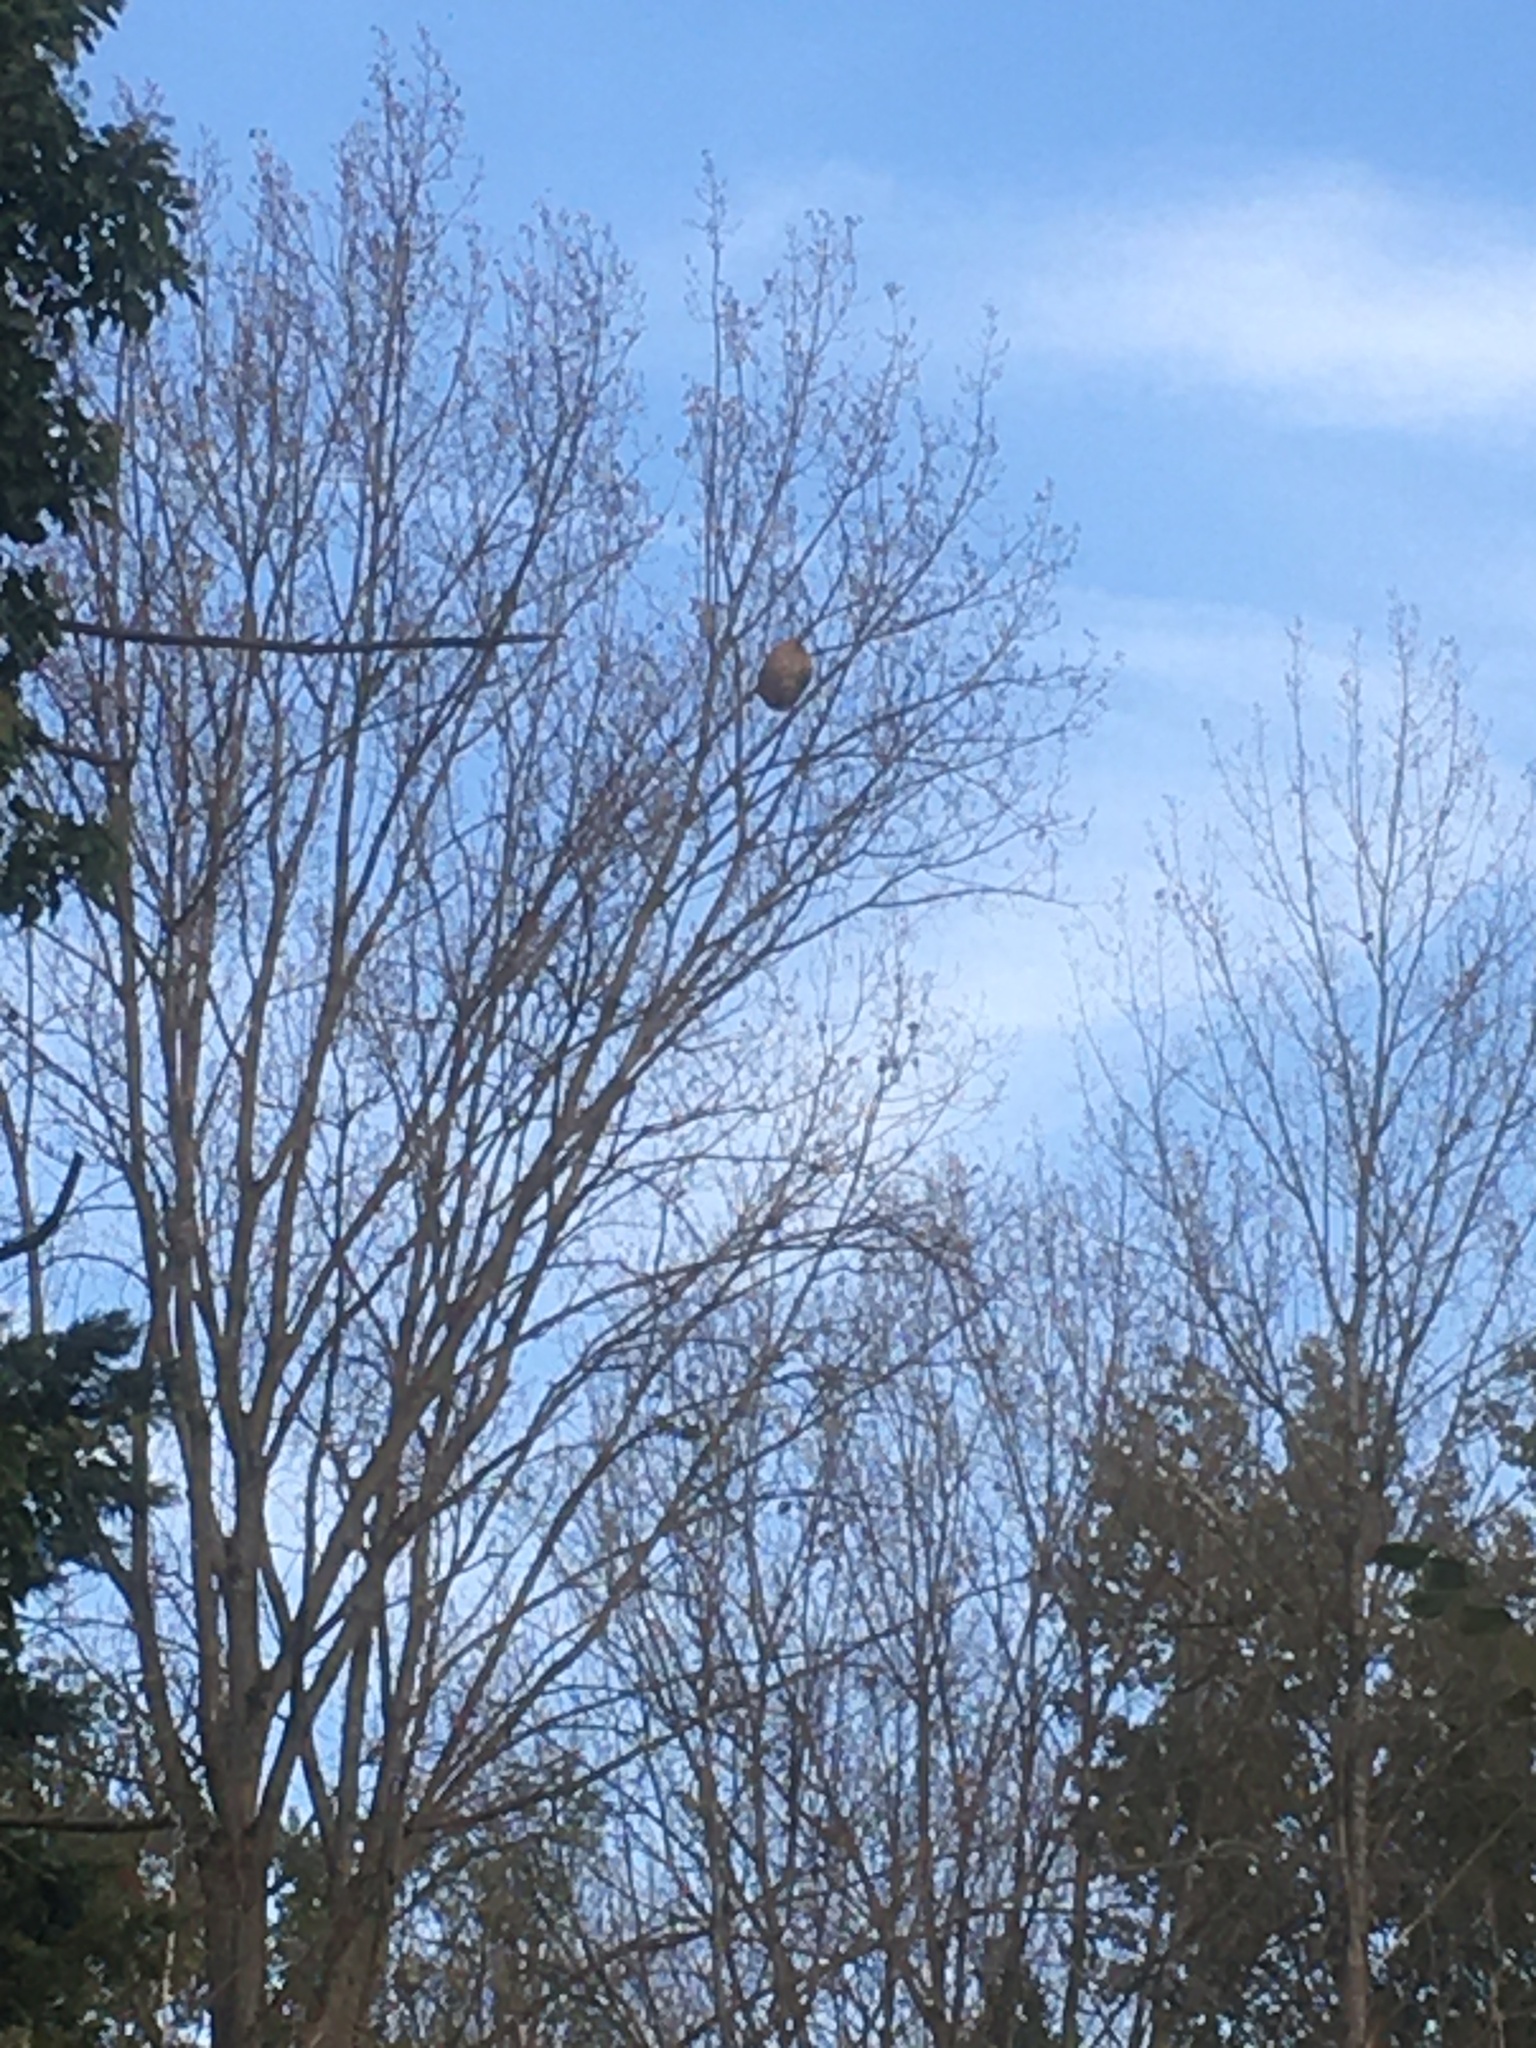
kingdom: Animalia
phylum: Arthropoda
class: Insecta
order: Hymenoptera
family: Vespidae
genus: Vespa
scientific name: Vespa velutina
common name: Asian hornet
